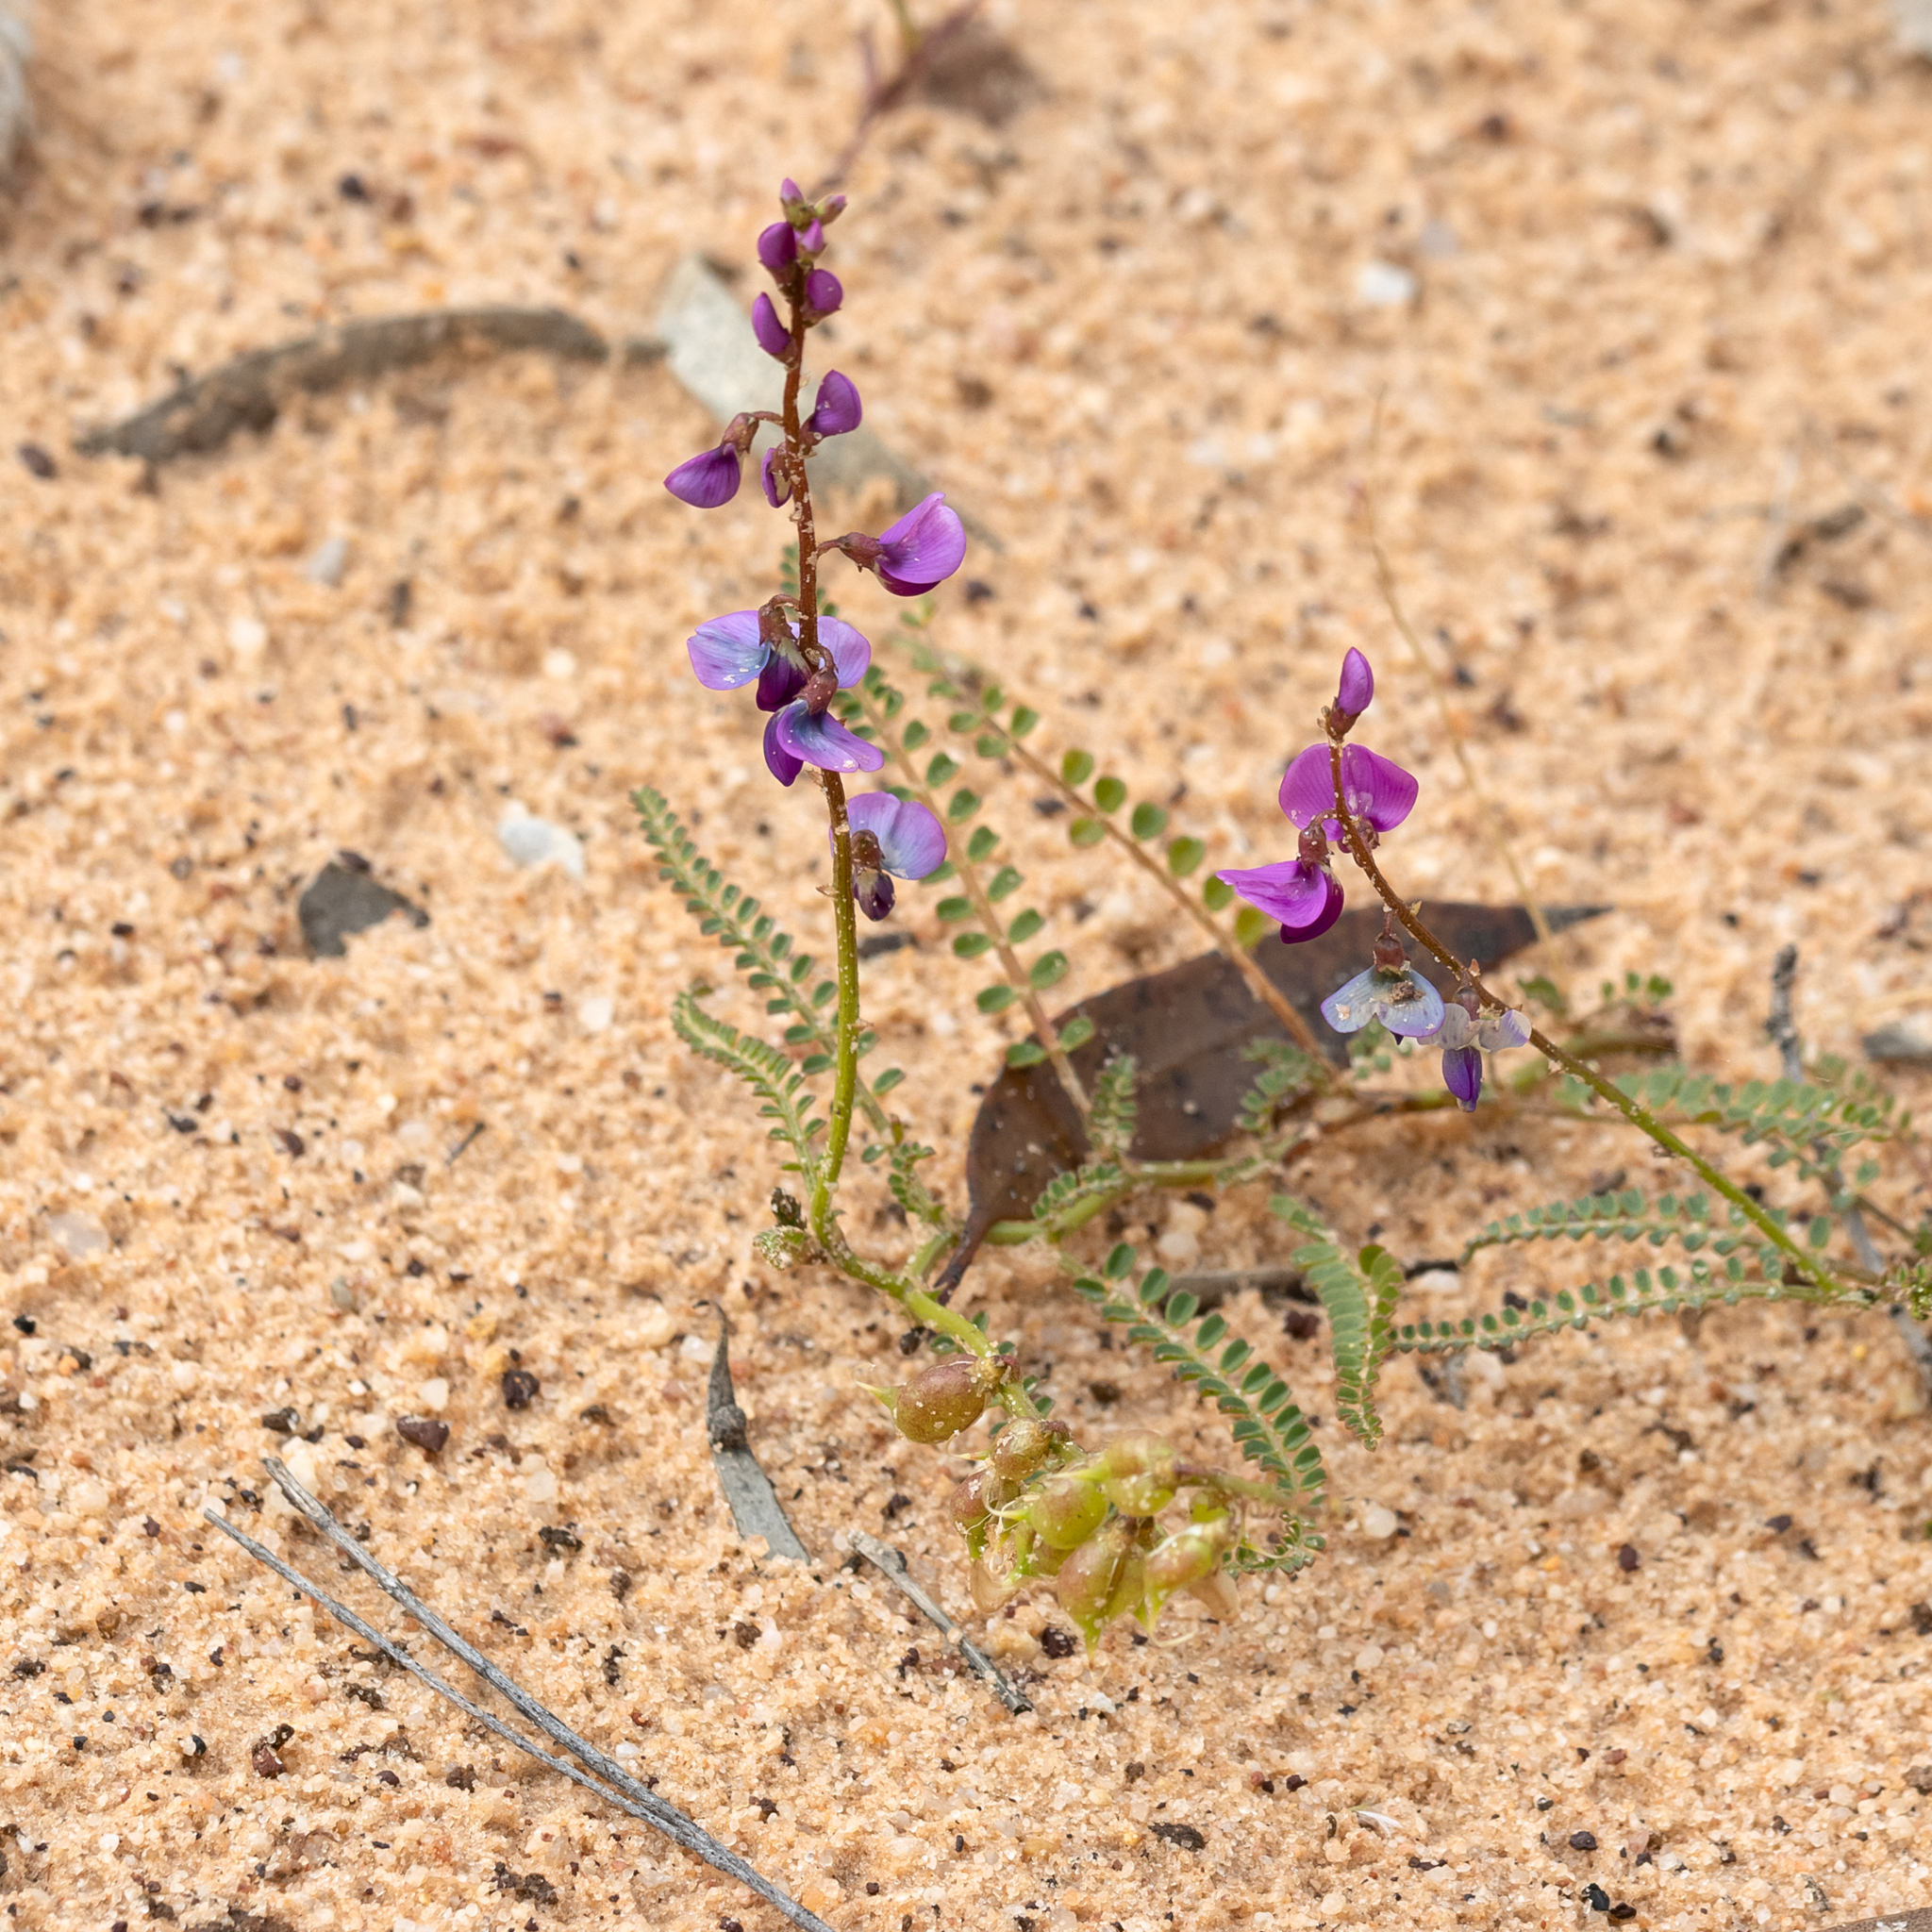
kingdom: Plantae
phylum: Tracheophyta
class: Magnoliopsida
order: Fabales
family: Fabaceae
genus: Swainsona
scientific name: Swainsona microphylla
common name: Small-leaf swainsona-pea
